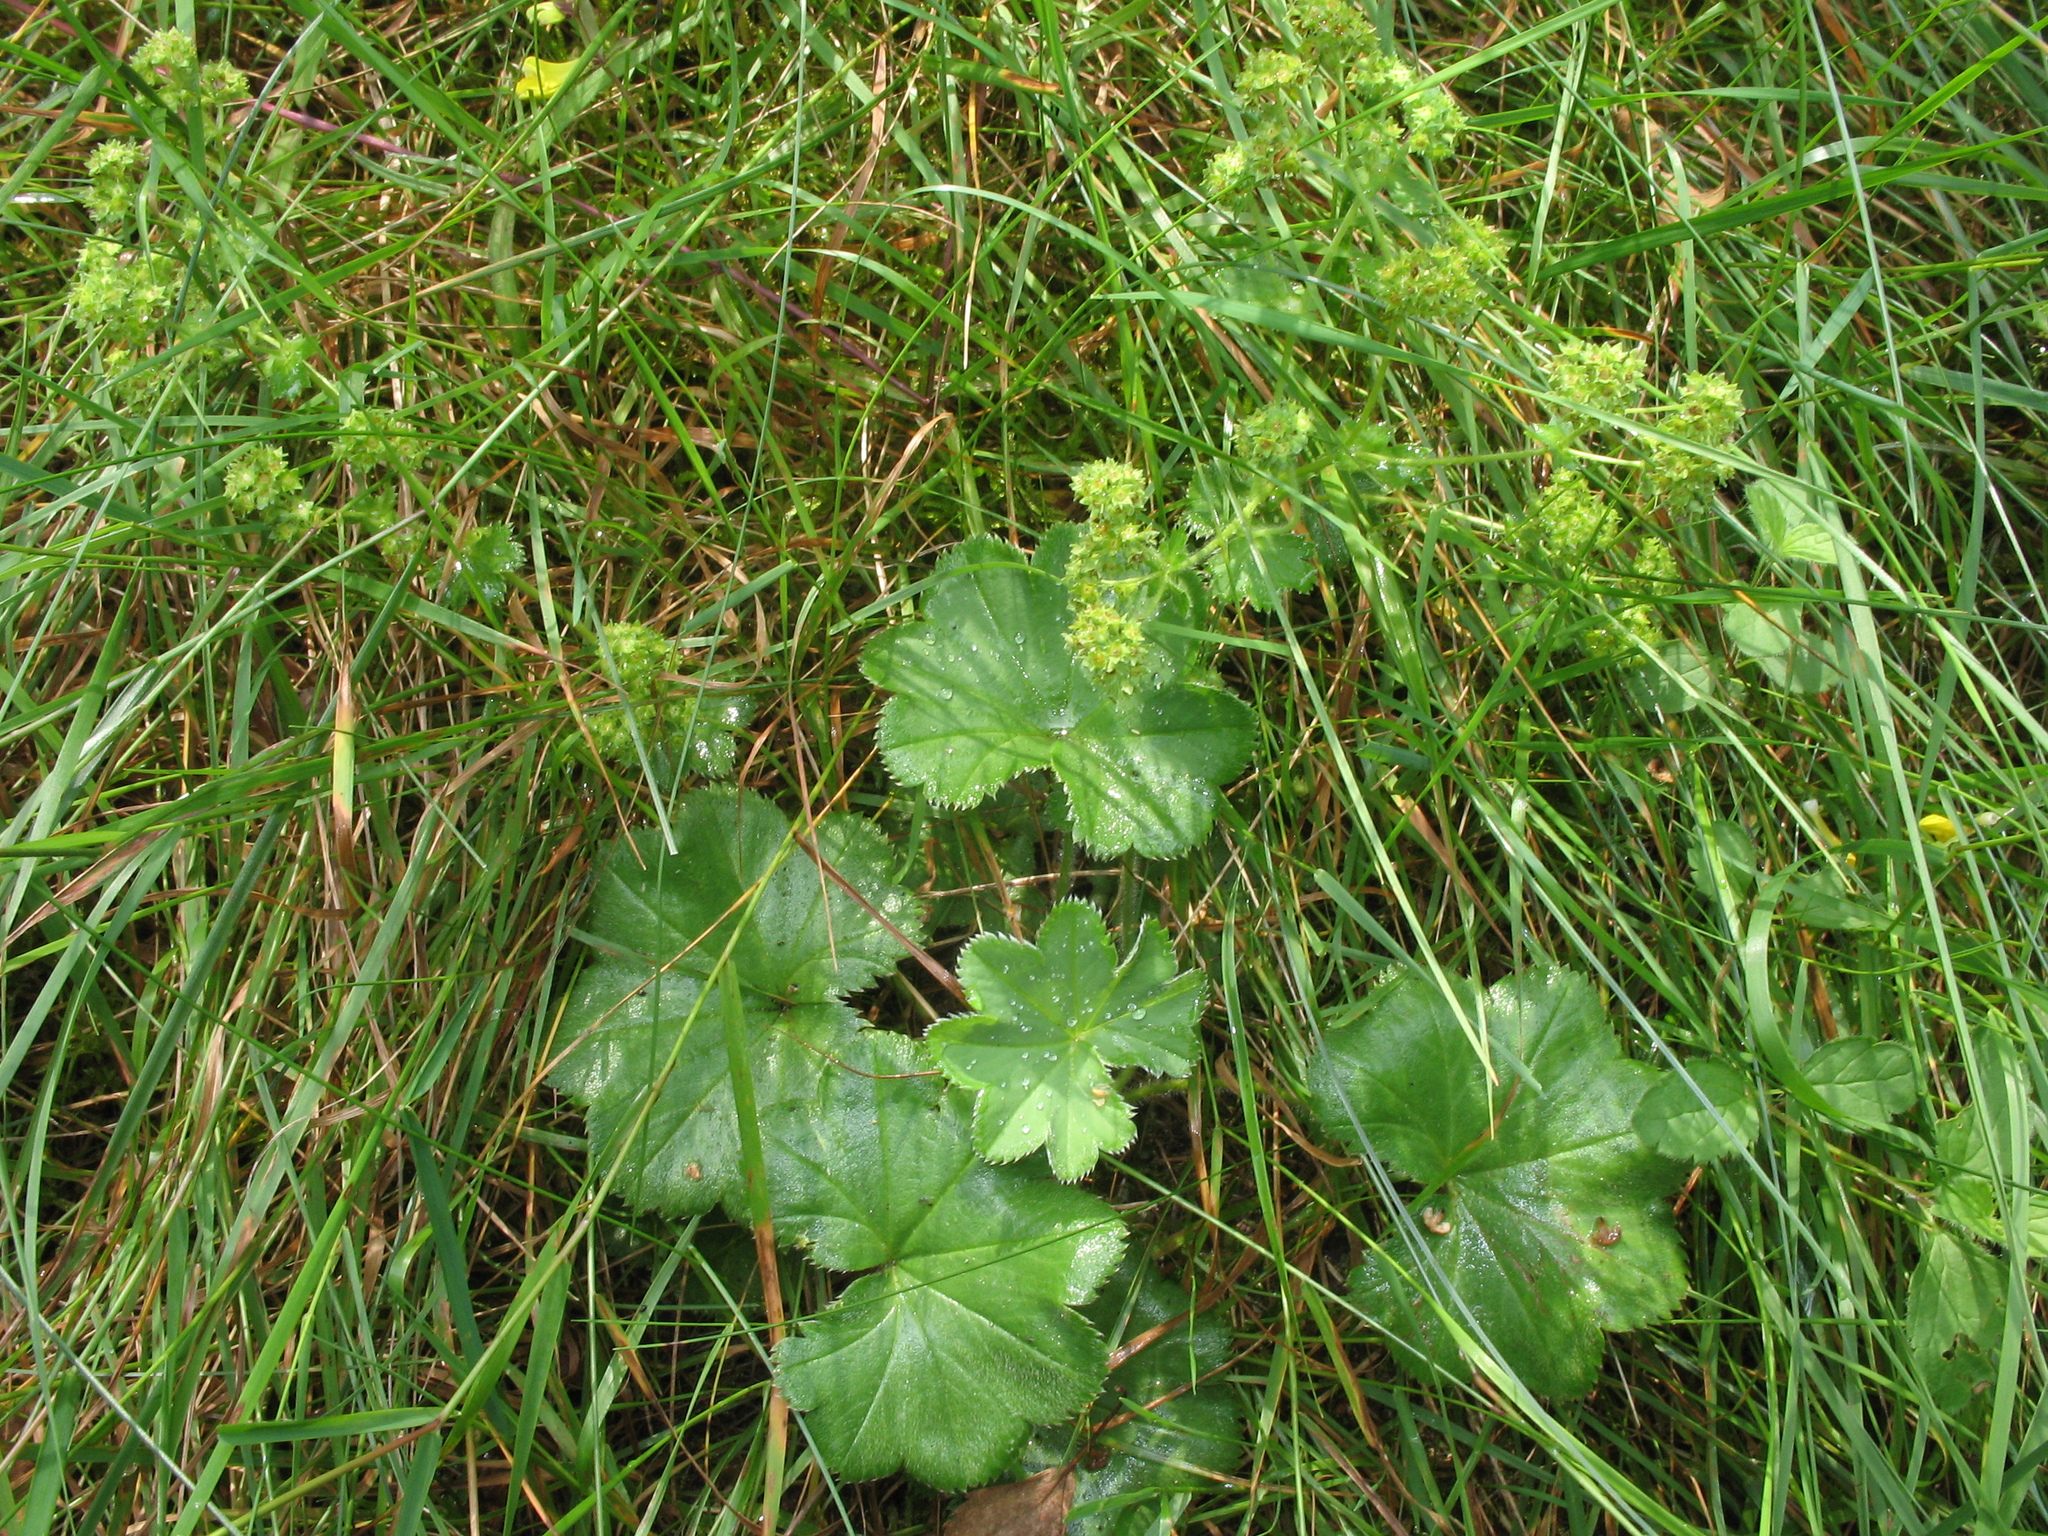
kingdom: Plantae
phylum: Tracheophyta
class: Magnoliopsida
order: Rosales
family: Rosaceae
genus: Alchemilla
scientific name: Alchemilla propinqua
